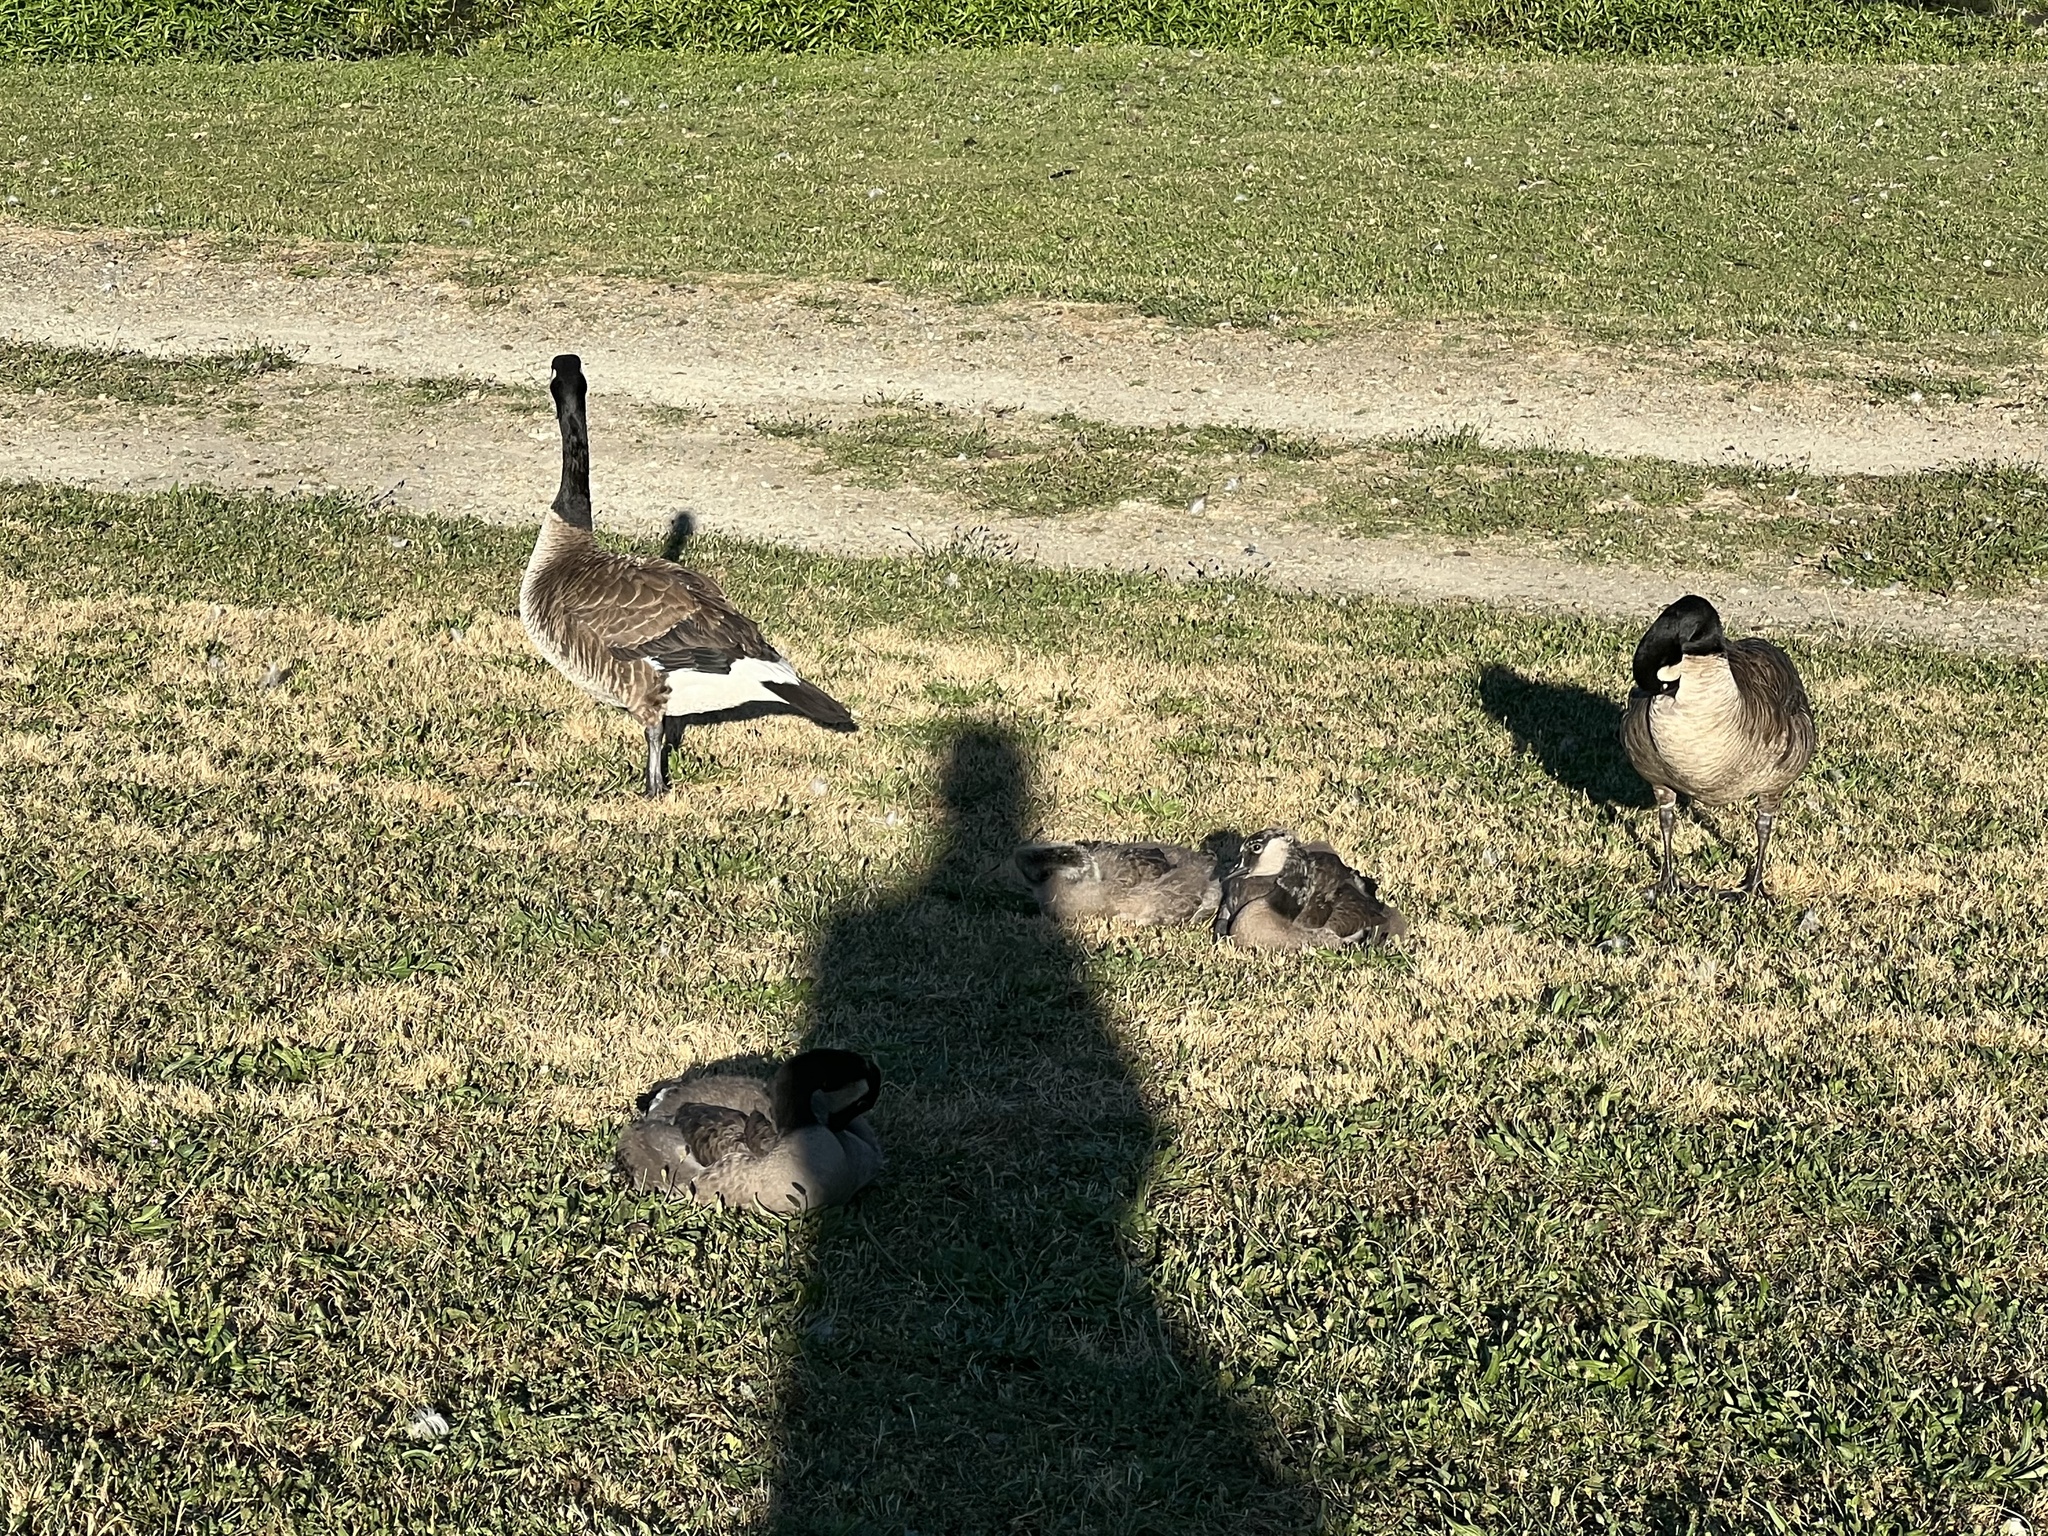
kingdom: Animalia
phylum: Chordata
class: Aves
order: Anseriformes
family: Anatidae
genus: Branta
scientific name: Branta canadensis
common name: Canada goose
